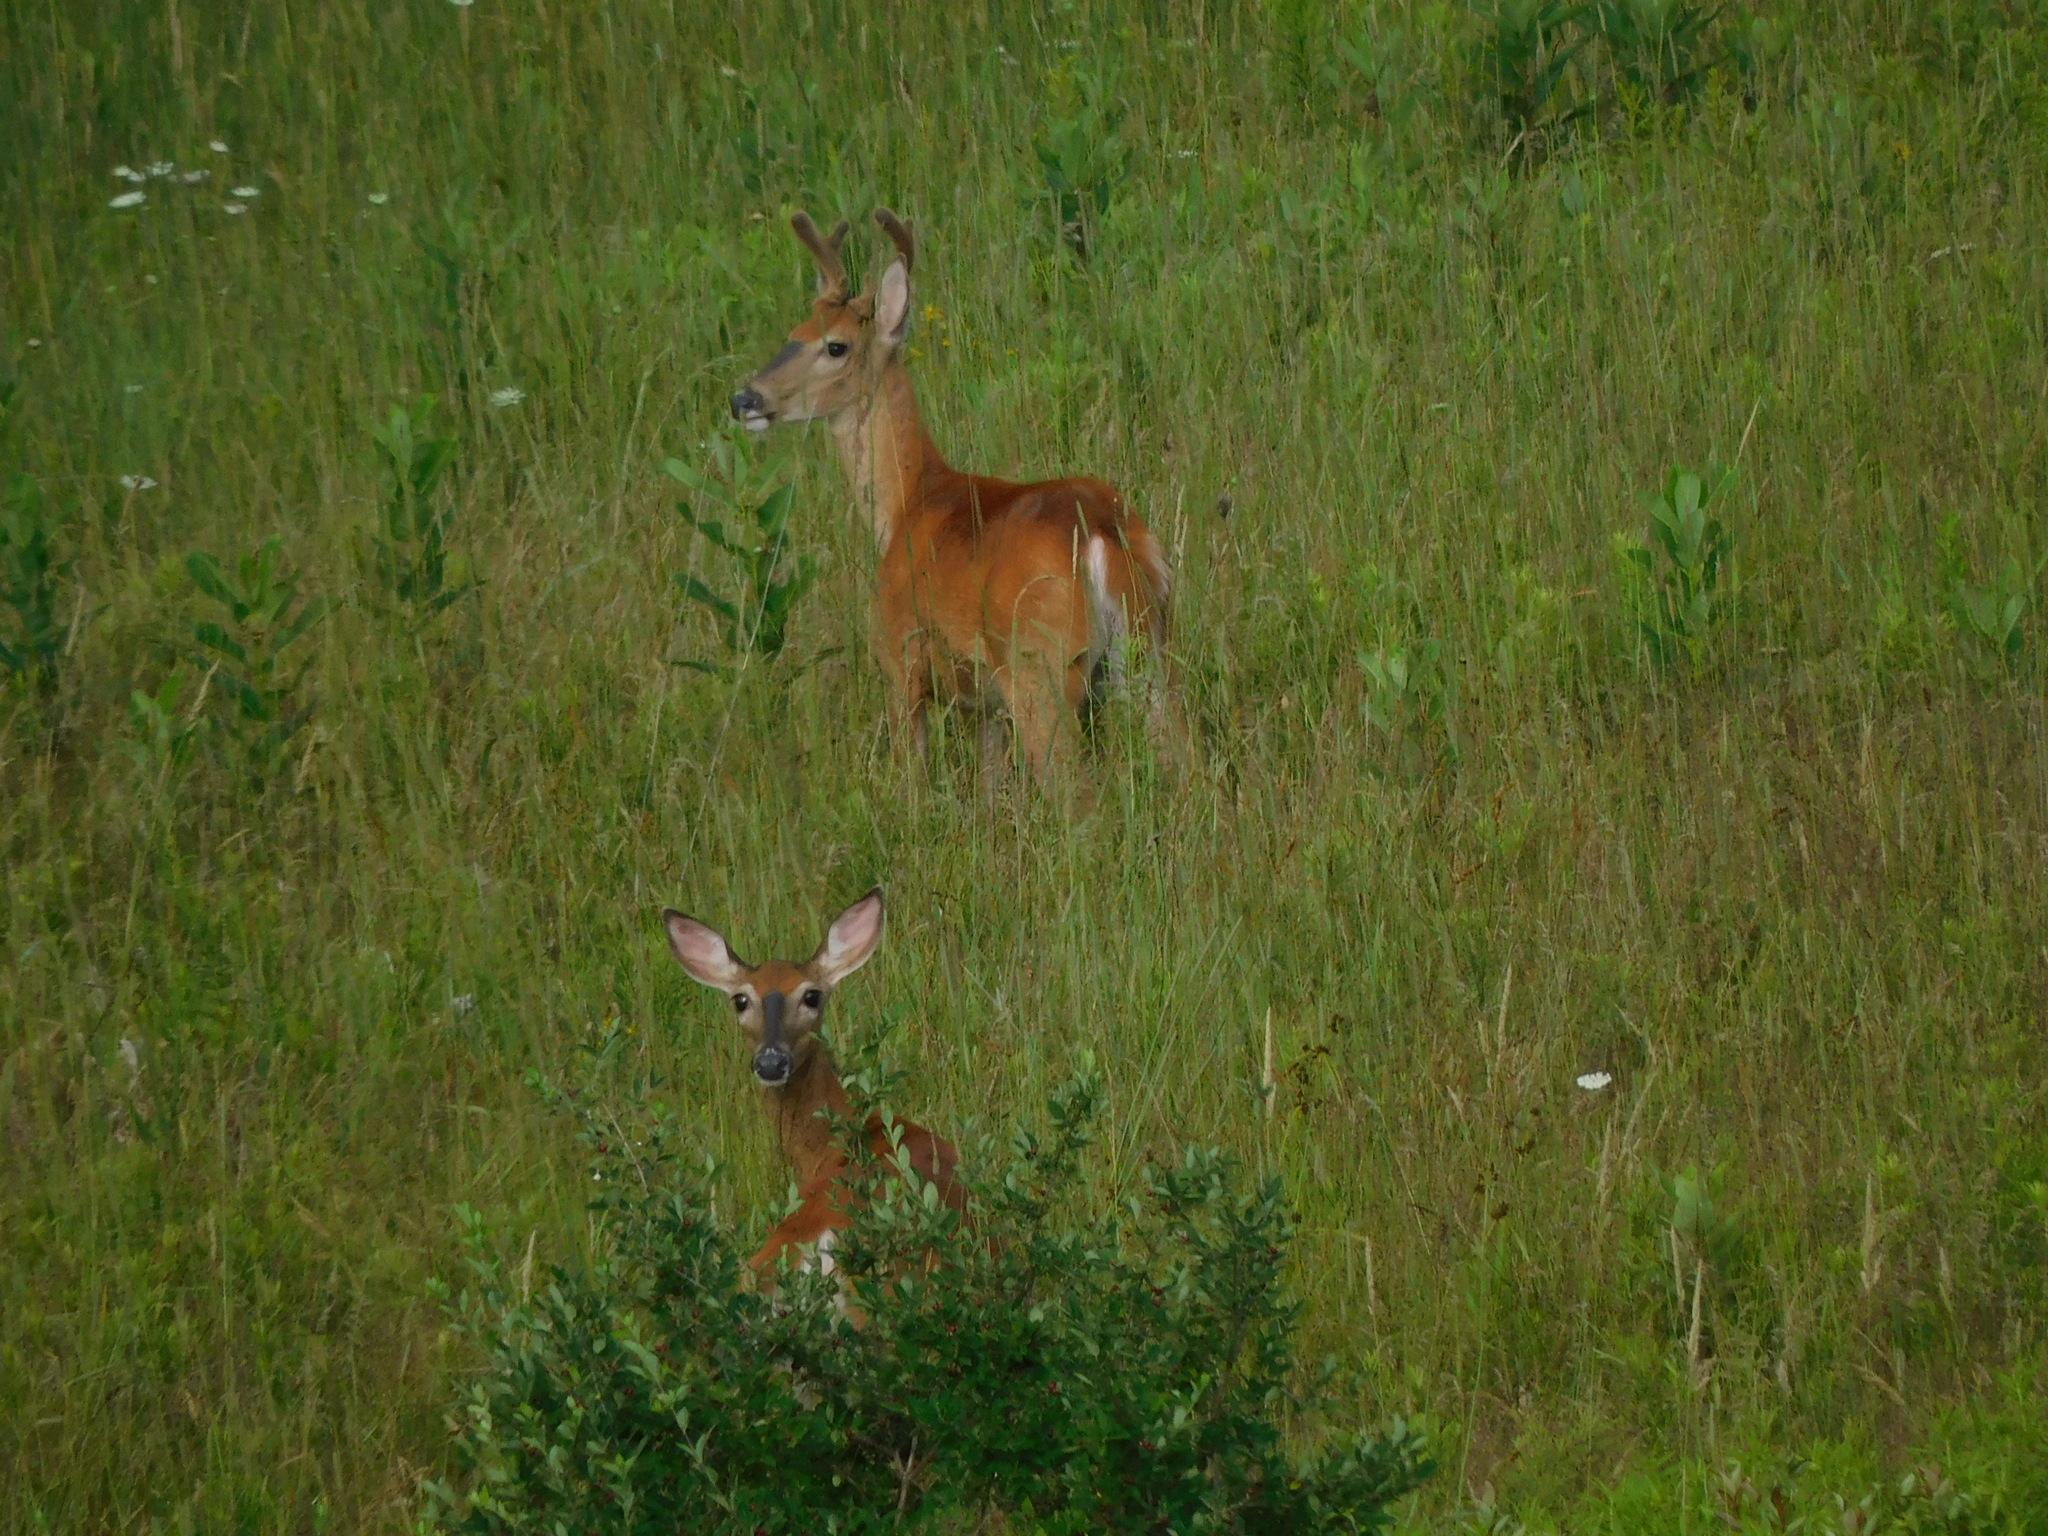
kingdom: Animalia
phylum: Chordata
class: Mammalia
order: Artiodactyla
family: Cervidae
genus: Odocoileus
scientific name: Odocoileus virginianus
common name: White-tailed deer
